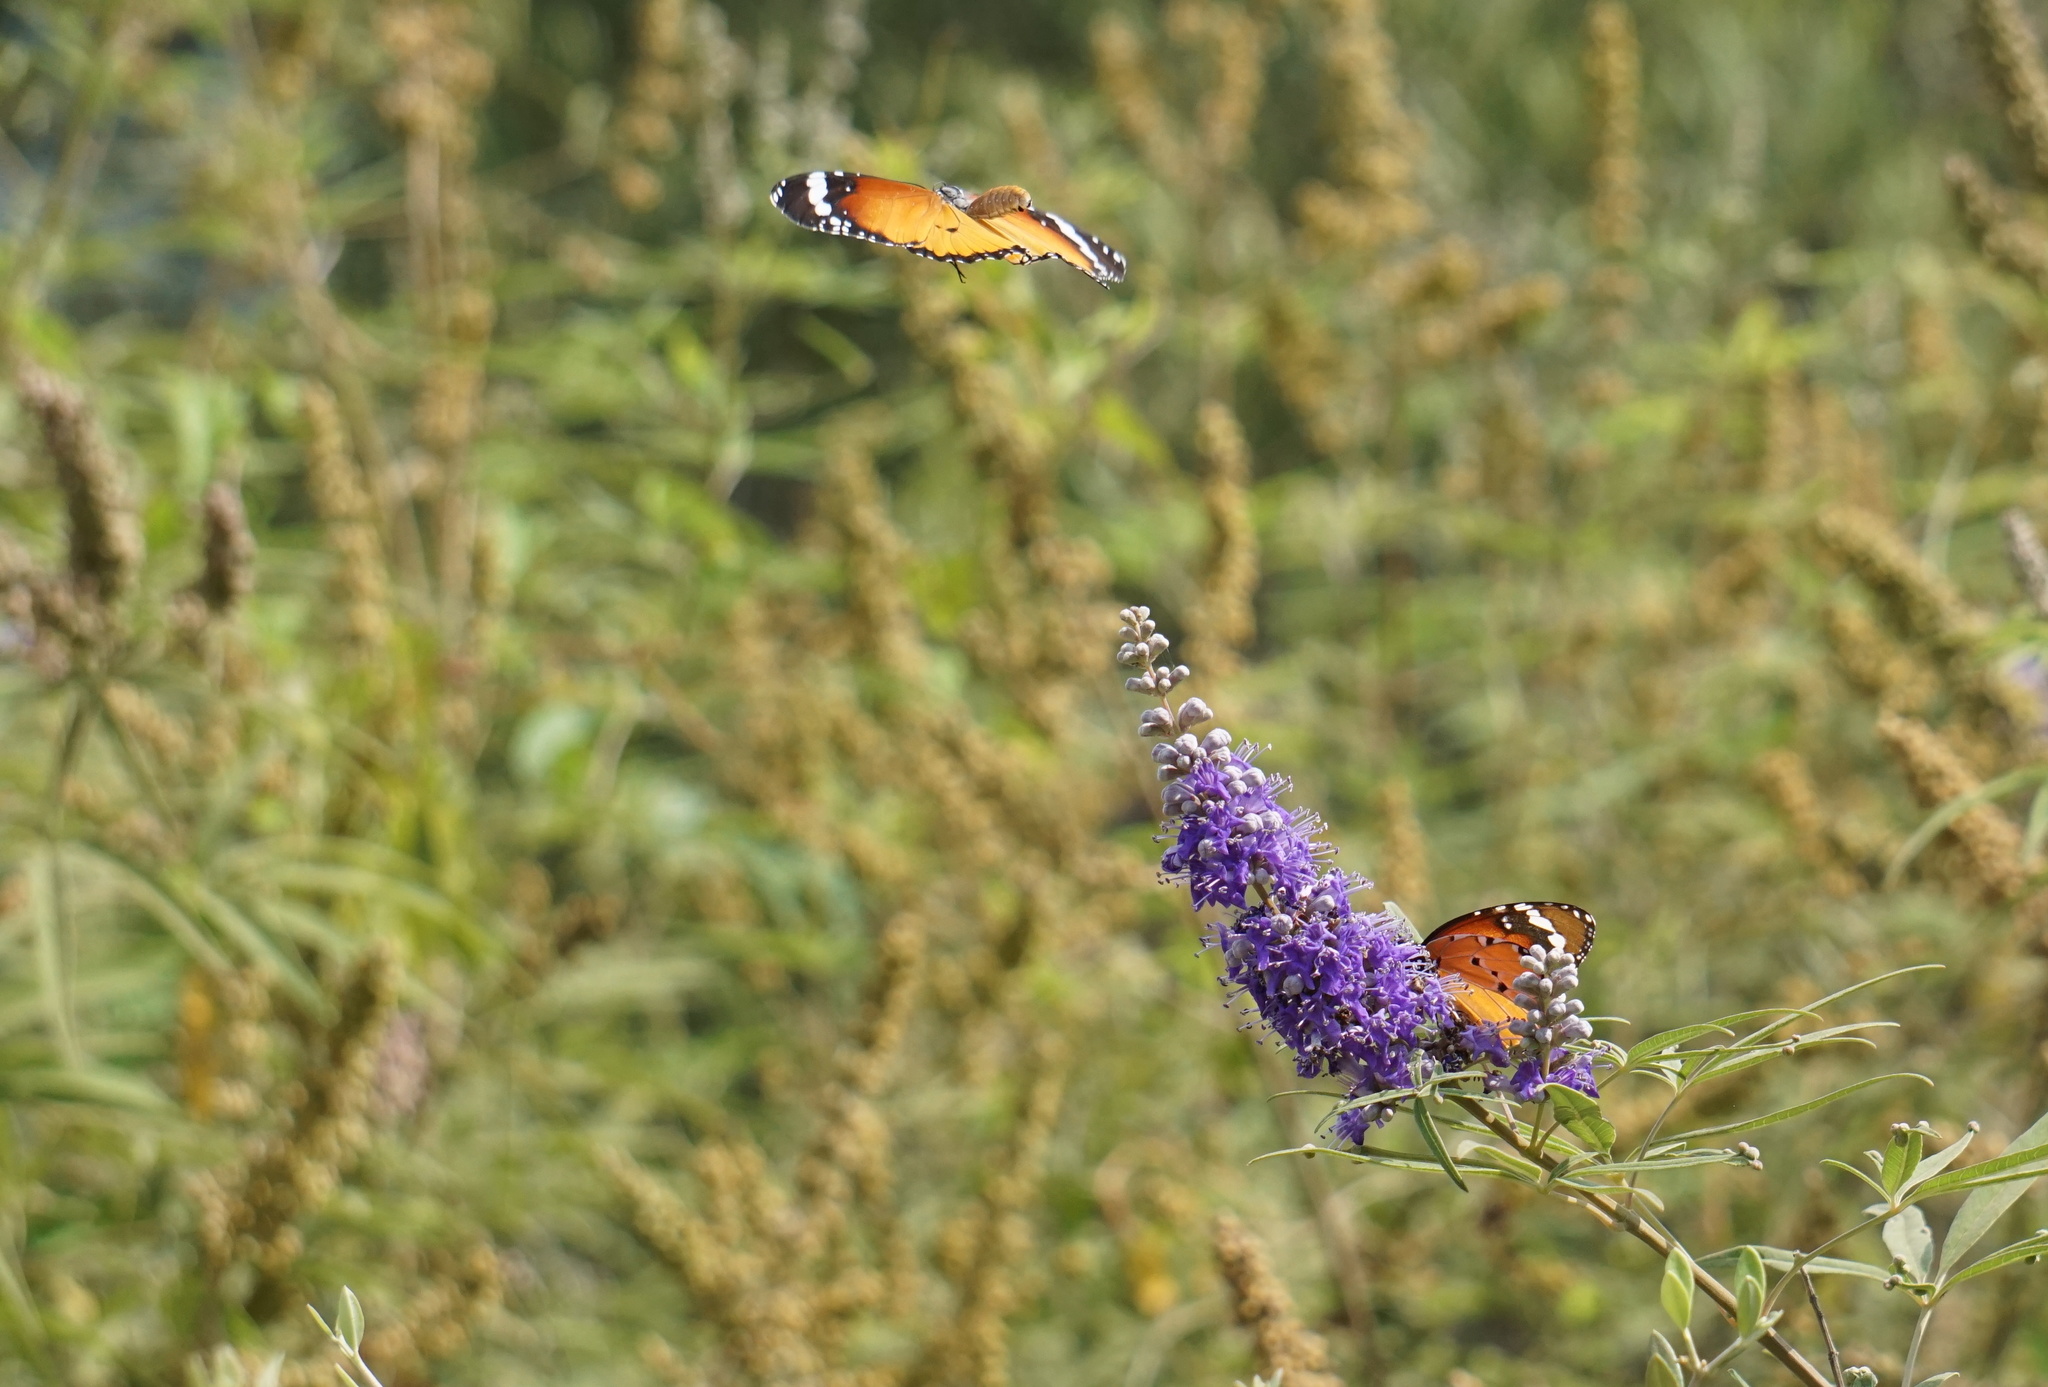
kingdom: Animalia
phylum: Arthropoda
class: Insecta
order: Lepidoptera
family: Nymphalidae
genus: Danaus
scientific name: Danaus chrysippus
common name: Plain tiger
